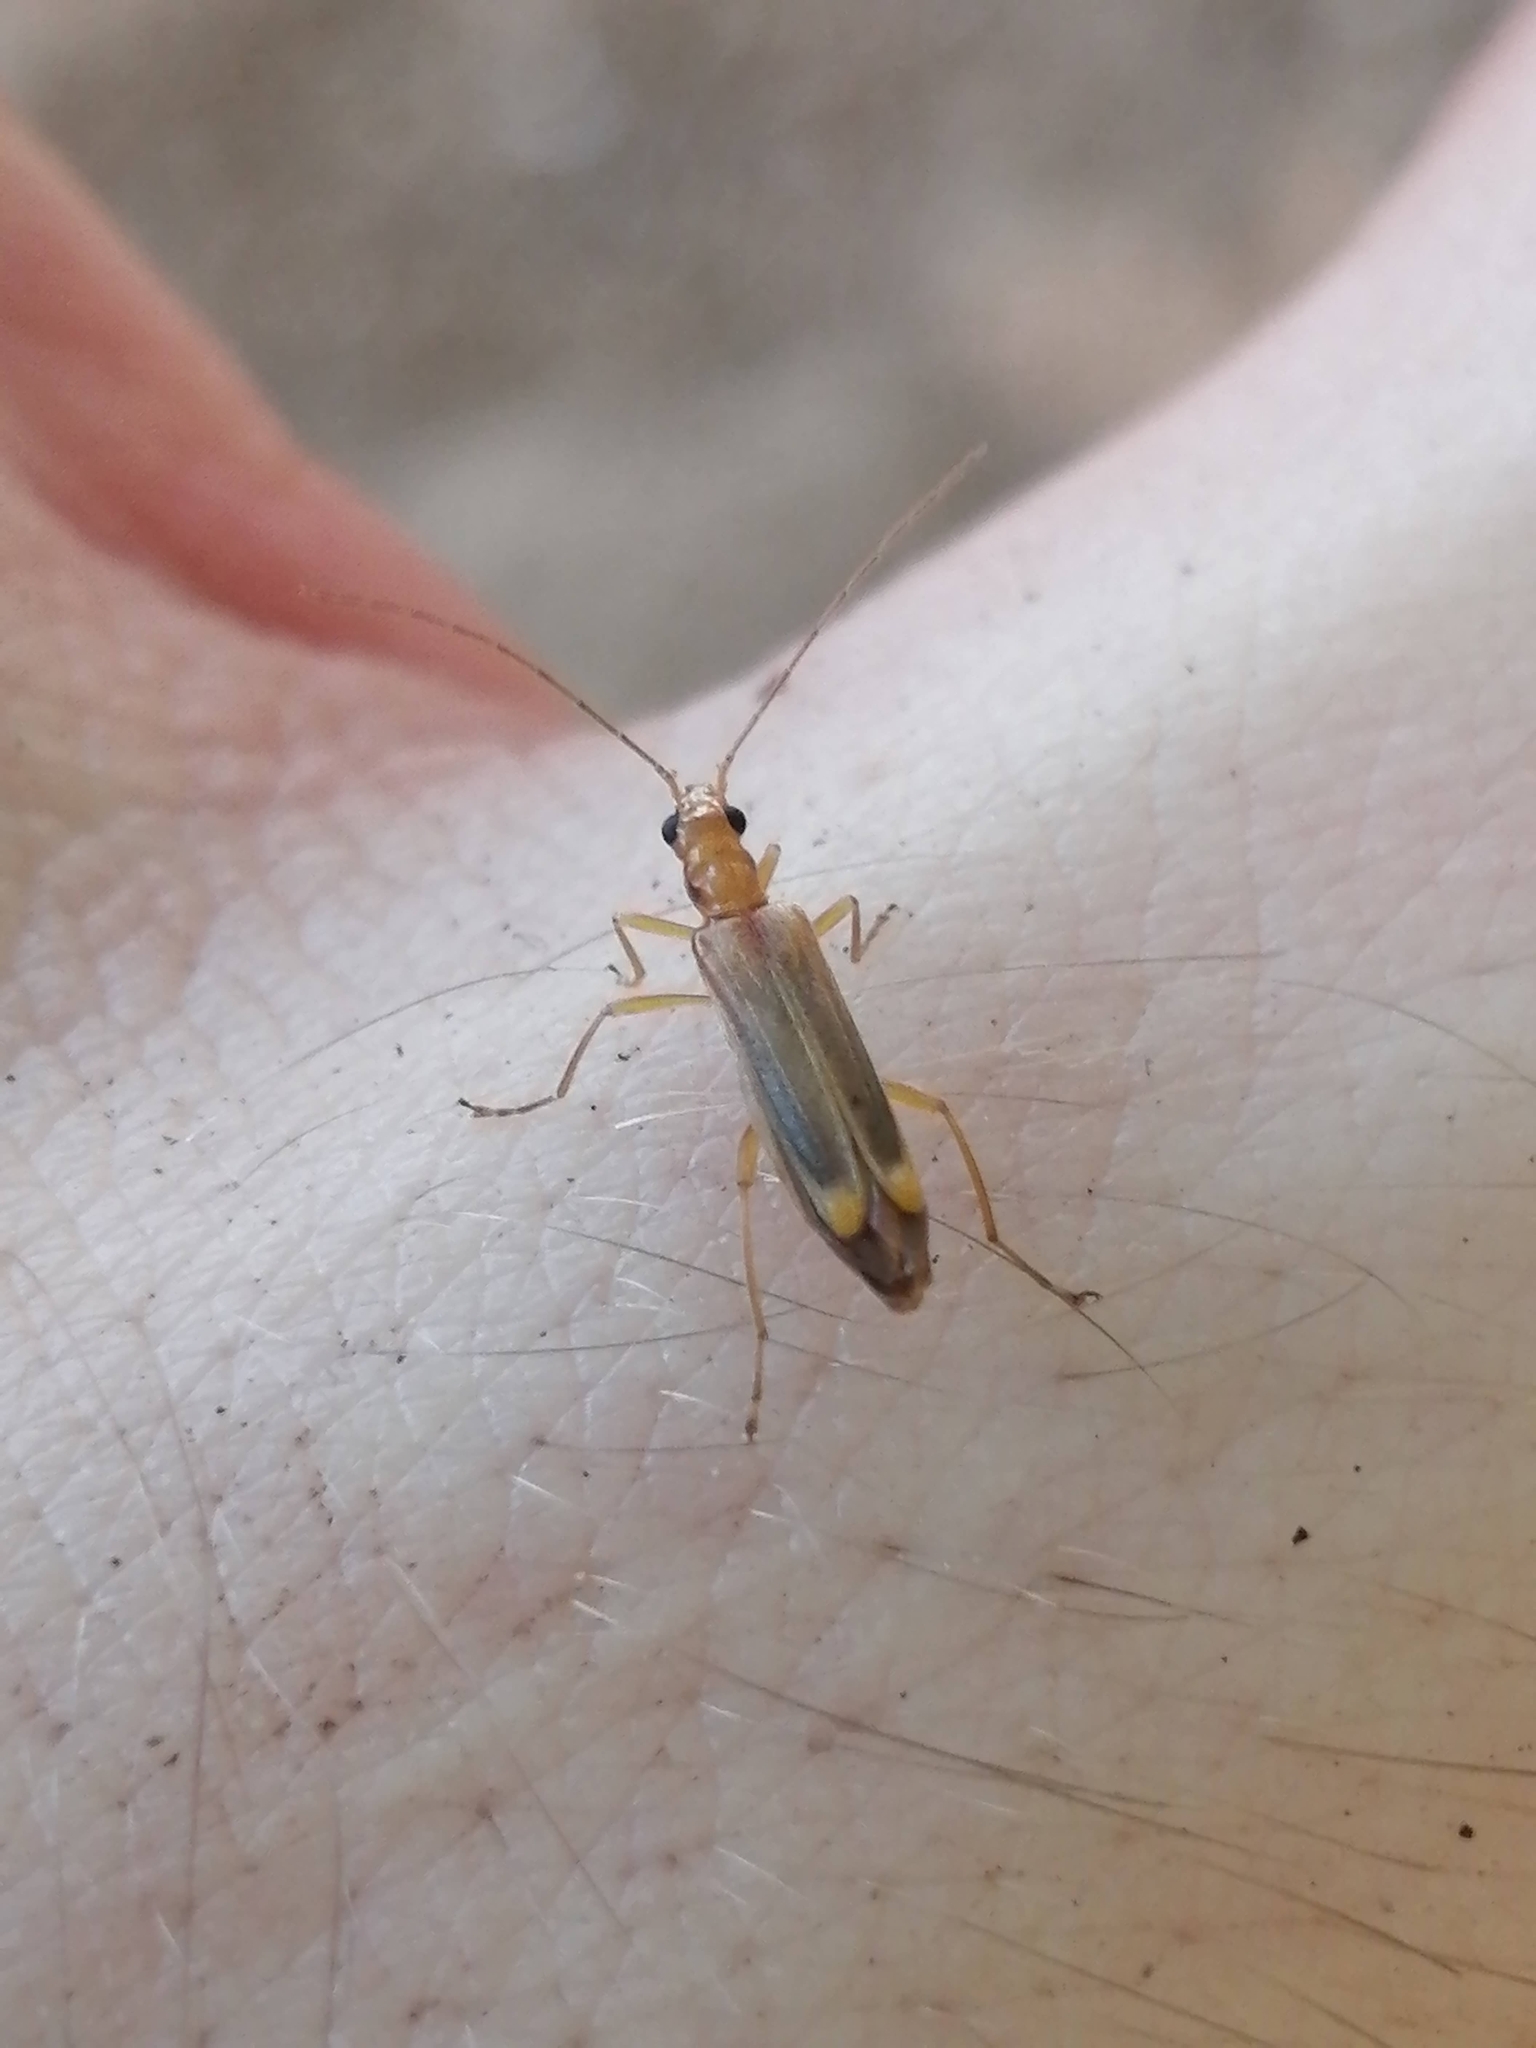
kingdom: Animalia
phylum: Arthropoda
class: Insecta
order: Coleoptera
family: Oedemeridae
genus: Oedemera
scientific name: Oedemera natolica
